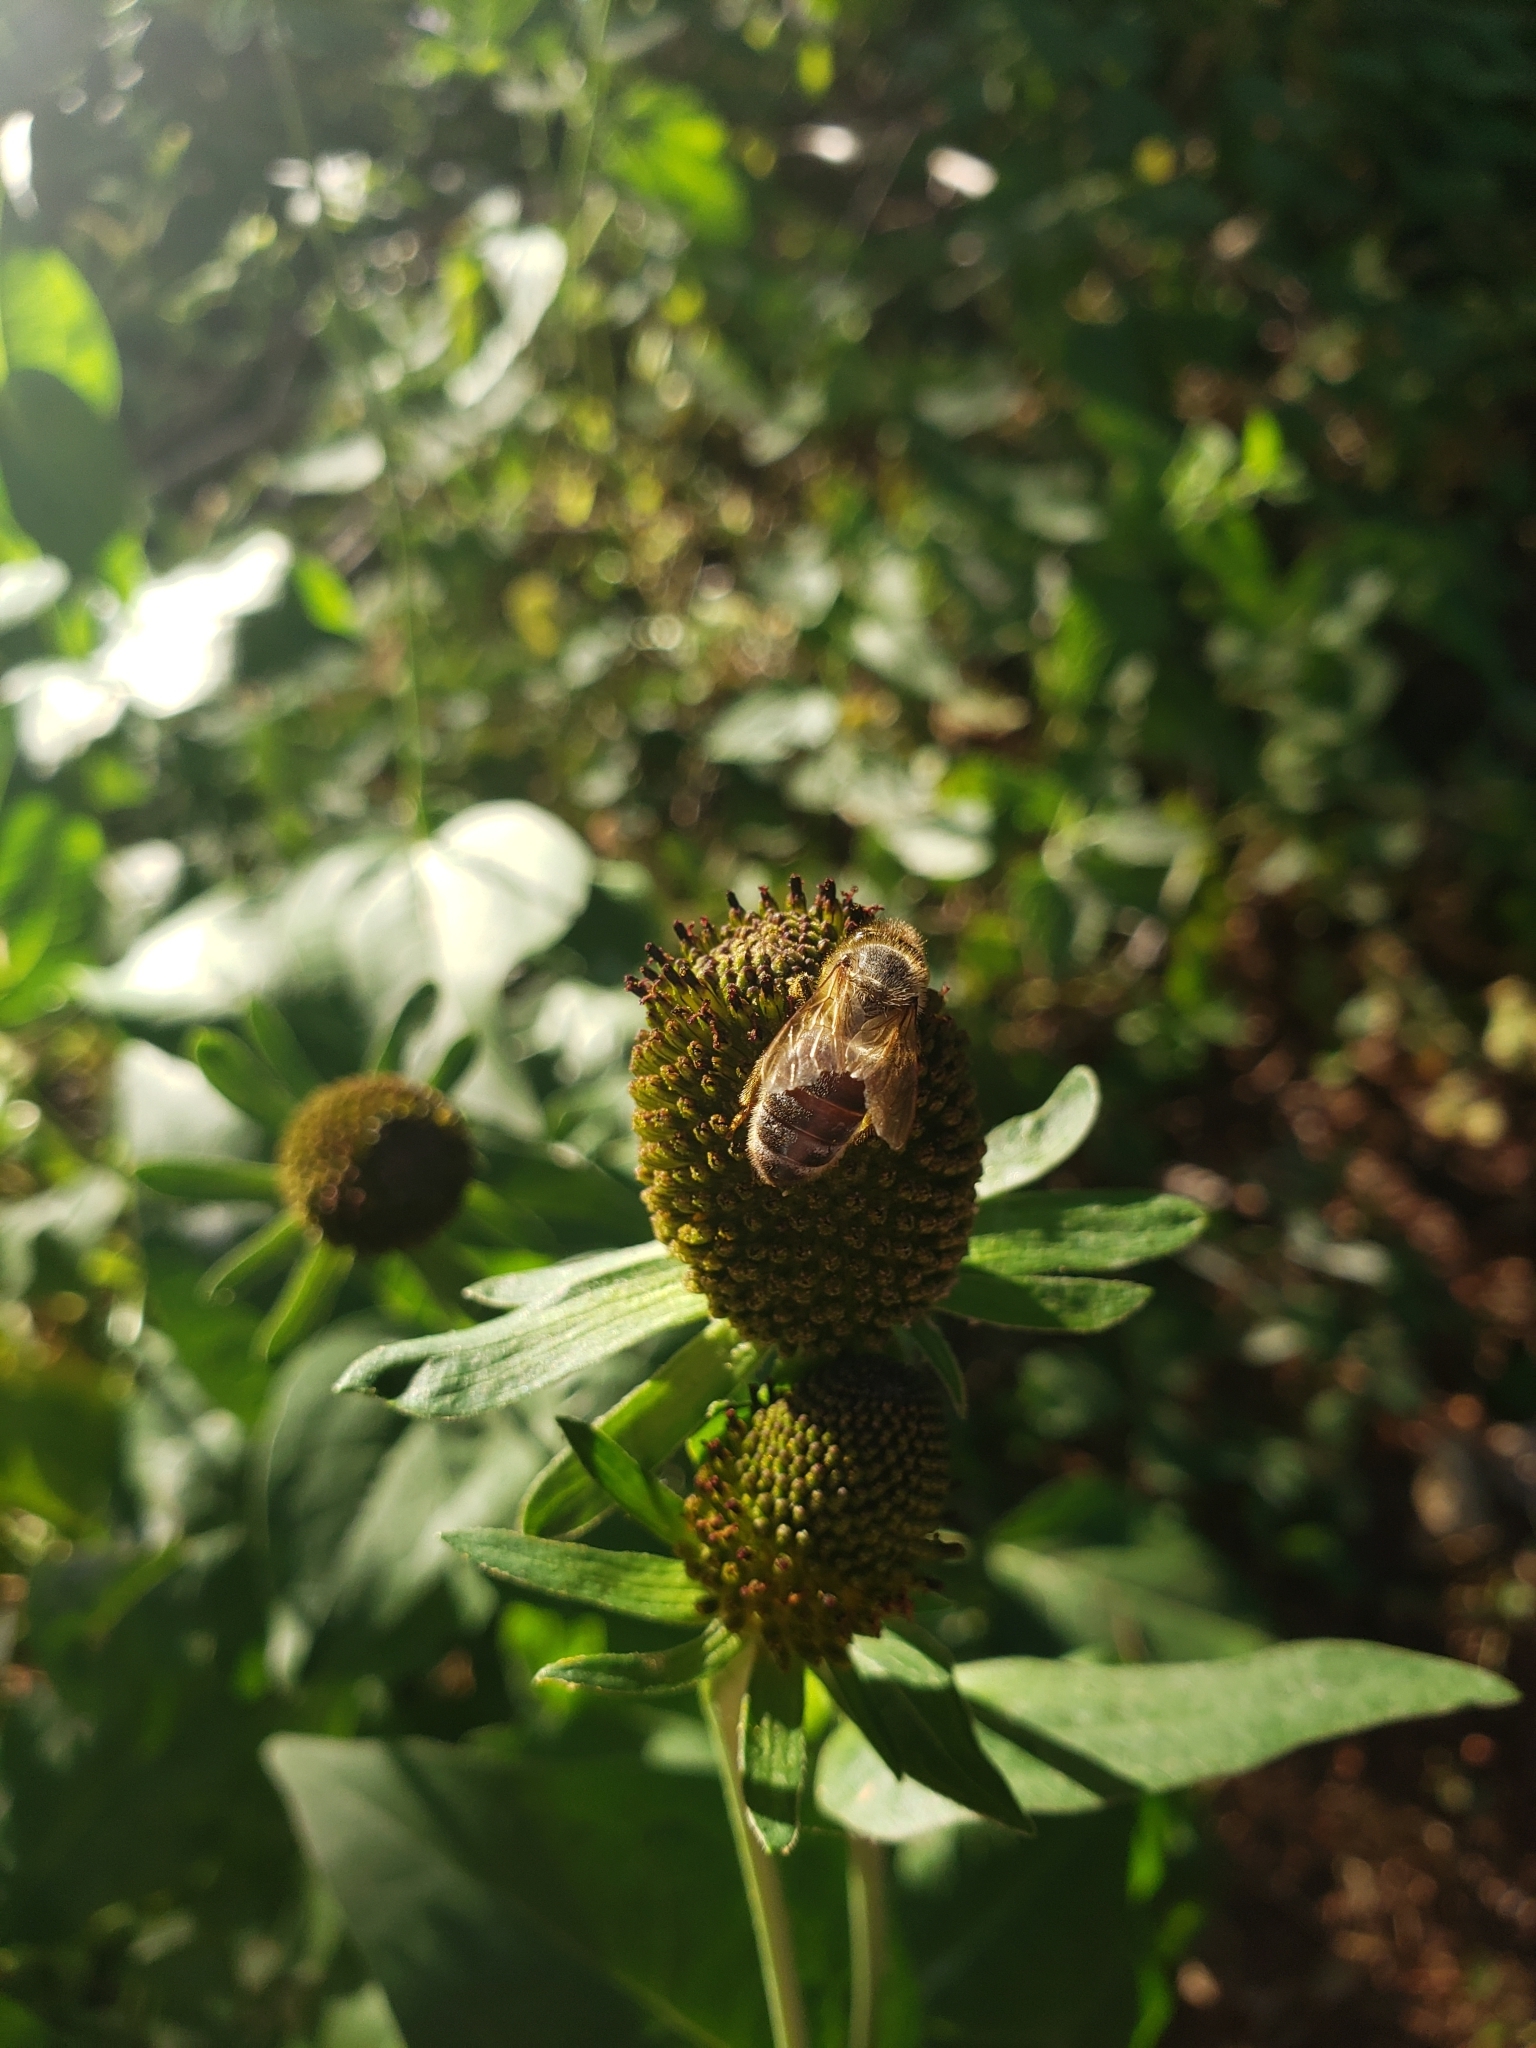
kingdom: Animalia
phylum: Arthropoda
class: Insecta
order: Hymenoptera
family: Apidae
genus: Apis
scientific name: Apis mellifera
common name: Honey bee
